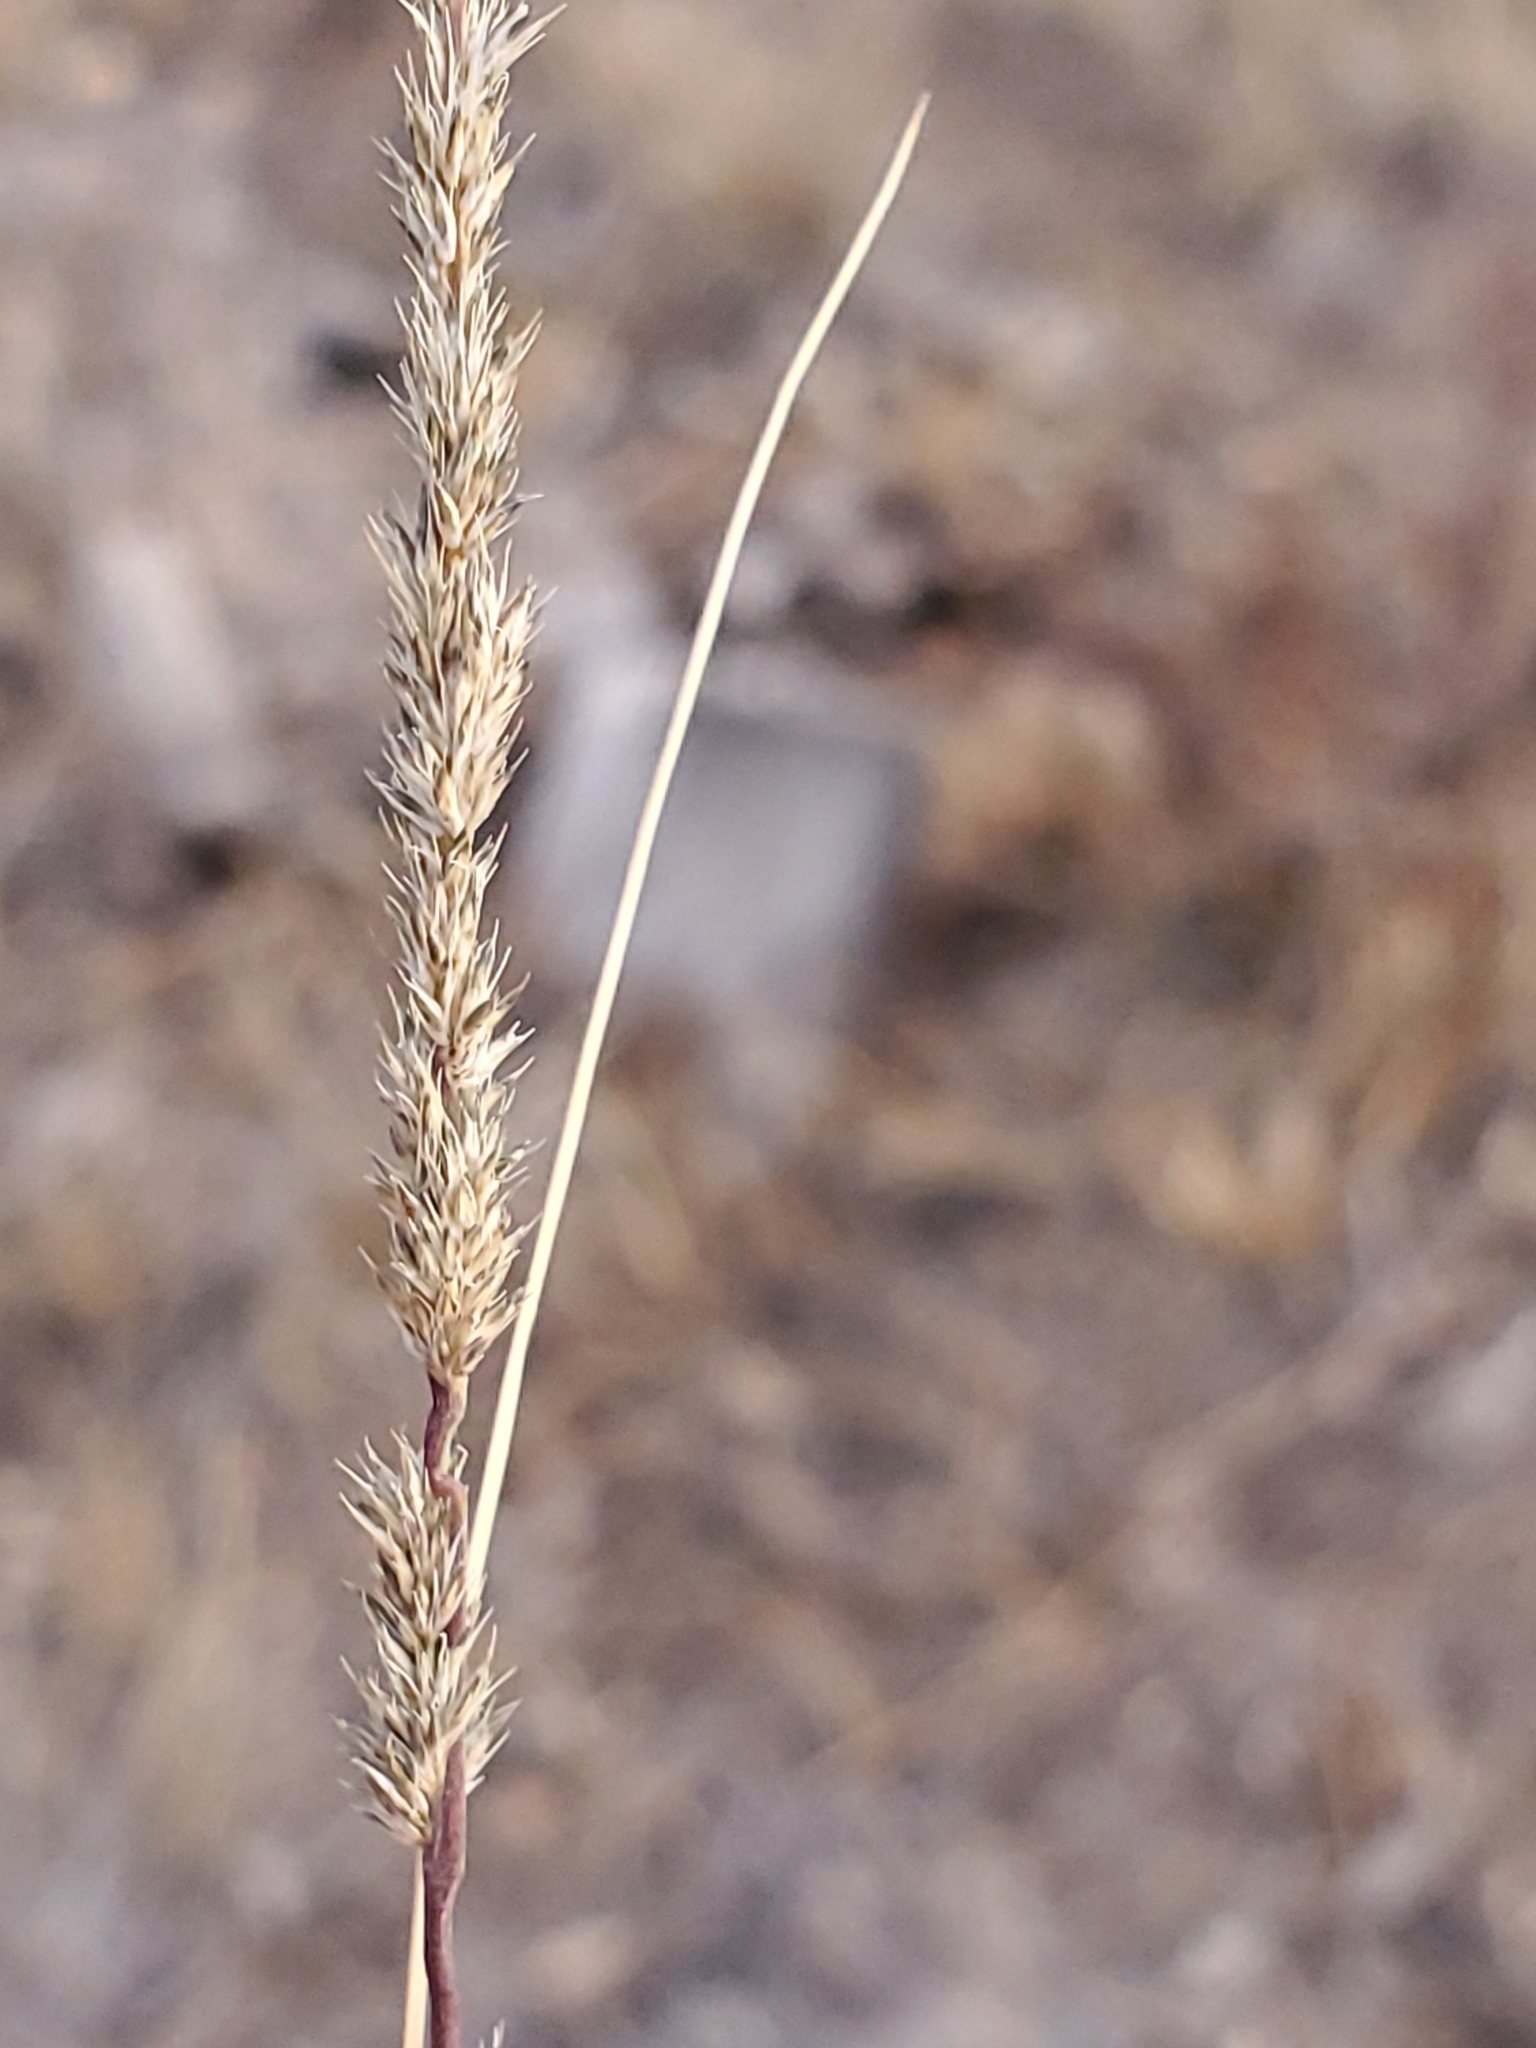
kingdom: Plantae
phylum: Tracheophyta
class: Liliopsida
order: Poales
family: Poaceae
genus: Muhlenbergia
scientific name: Muhlenbergia wrightii
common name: Spike muhly
